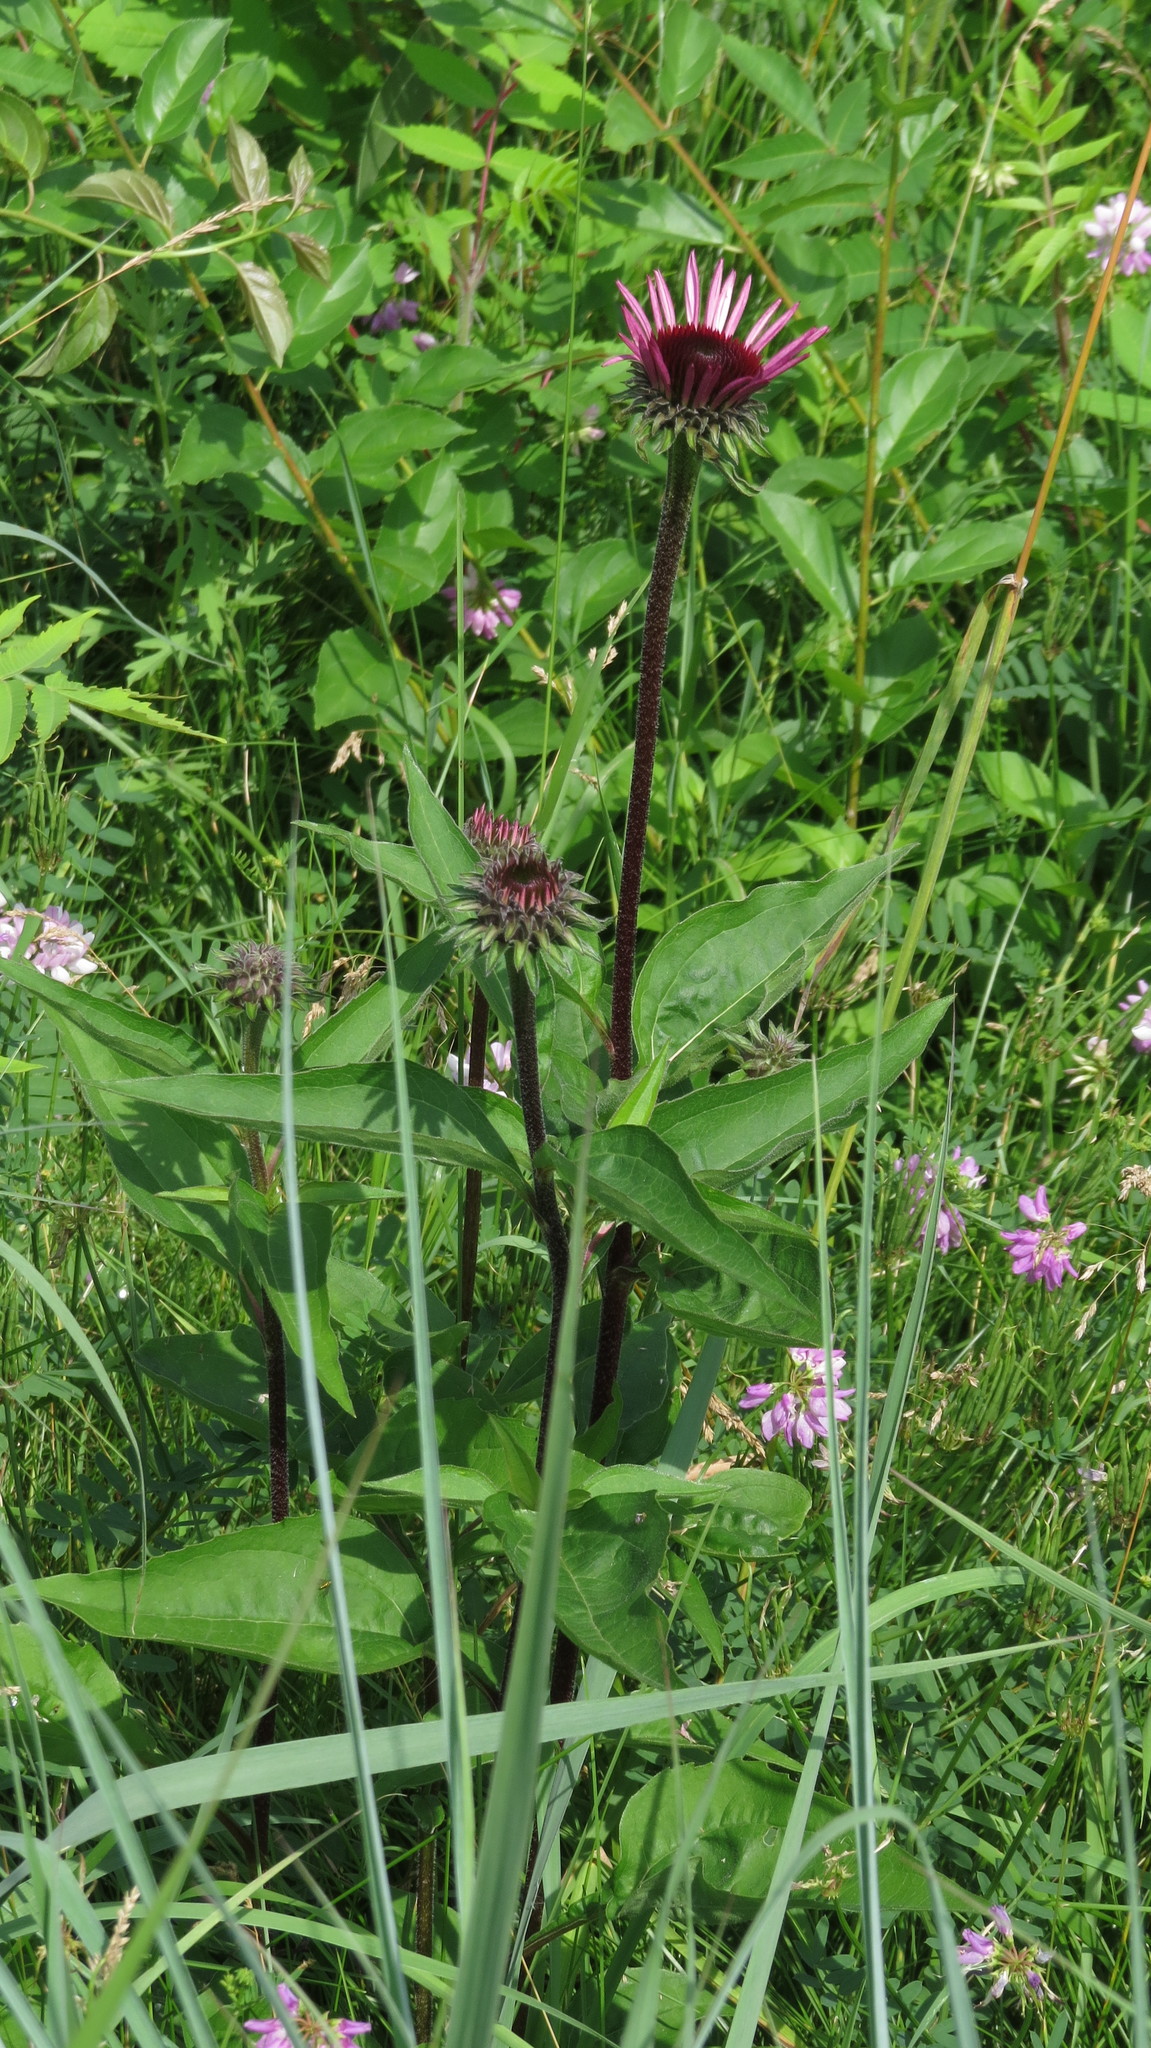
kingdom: Plantae
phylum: Tracheophyta
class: Magnoliopsida
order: Asterales
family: Asteraceae
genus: Echinacea
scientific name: Echinacea purpurea
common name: Broad-leaved purple coneflower
